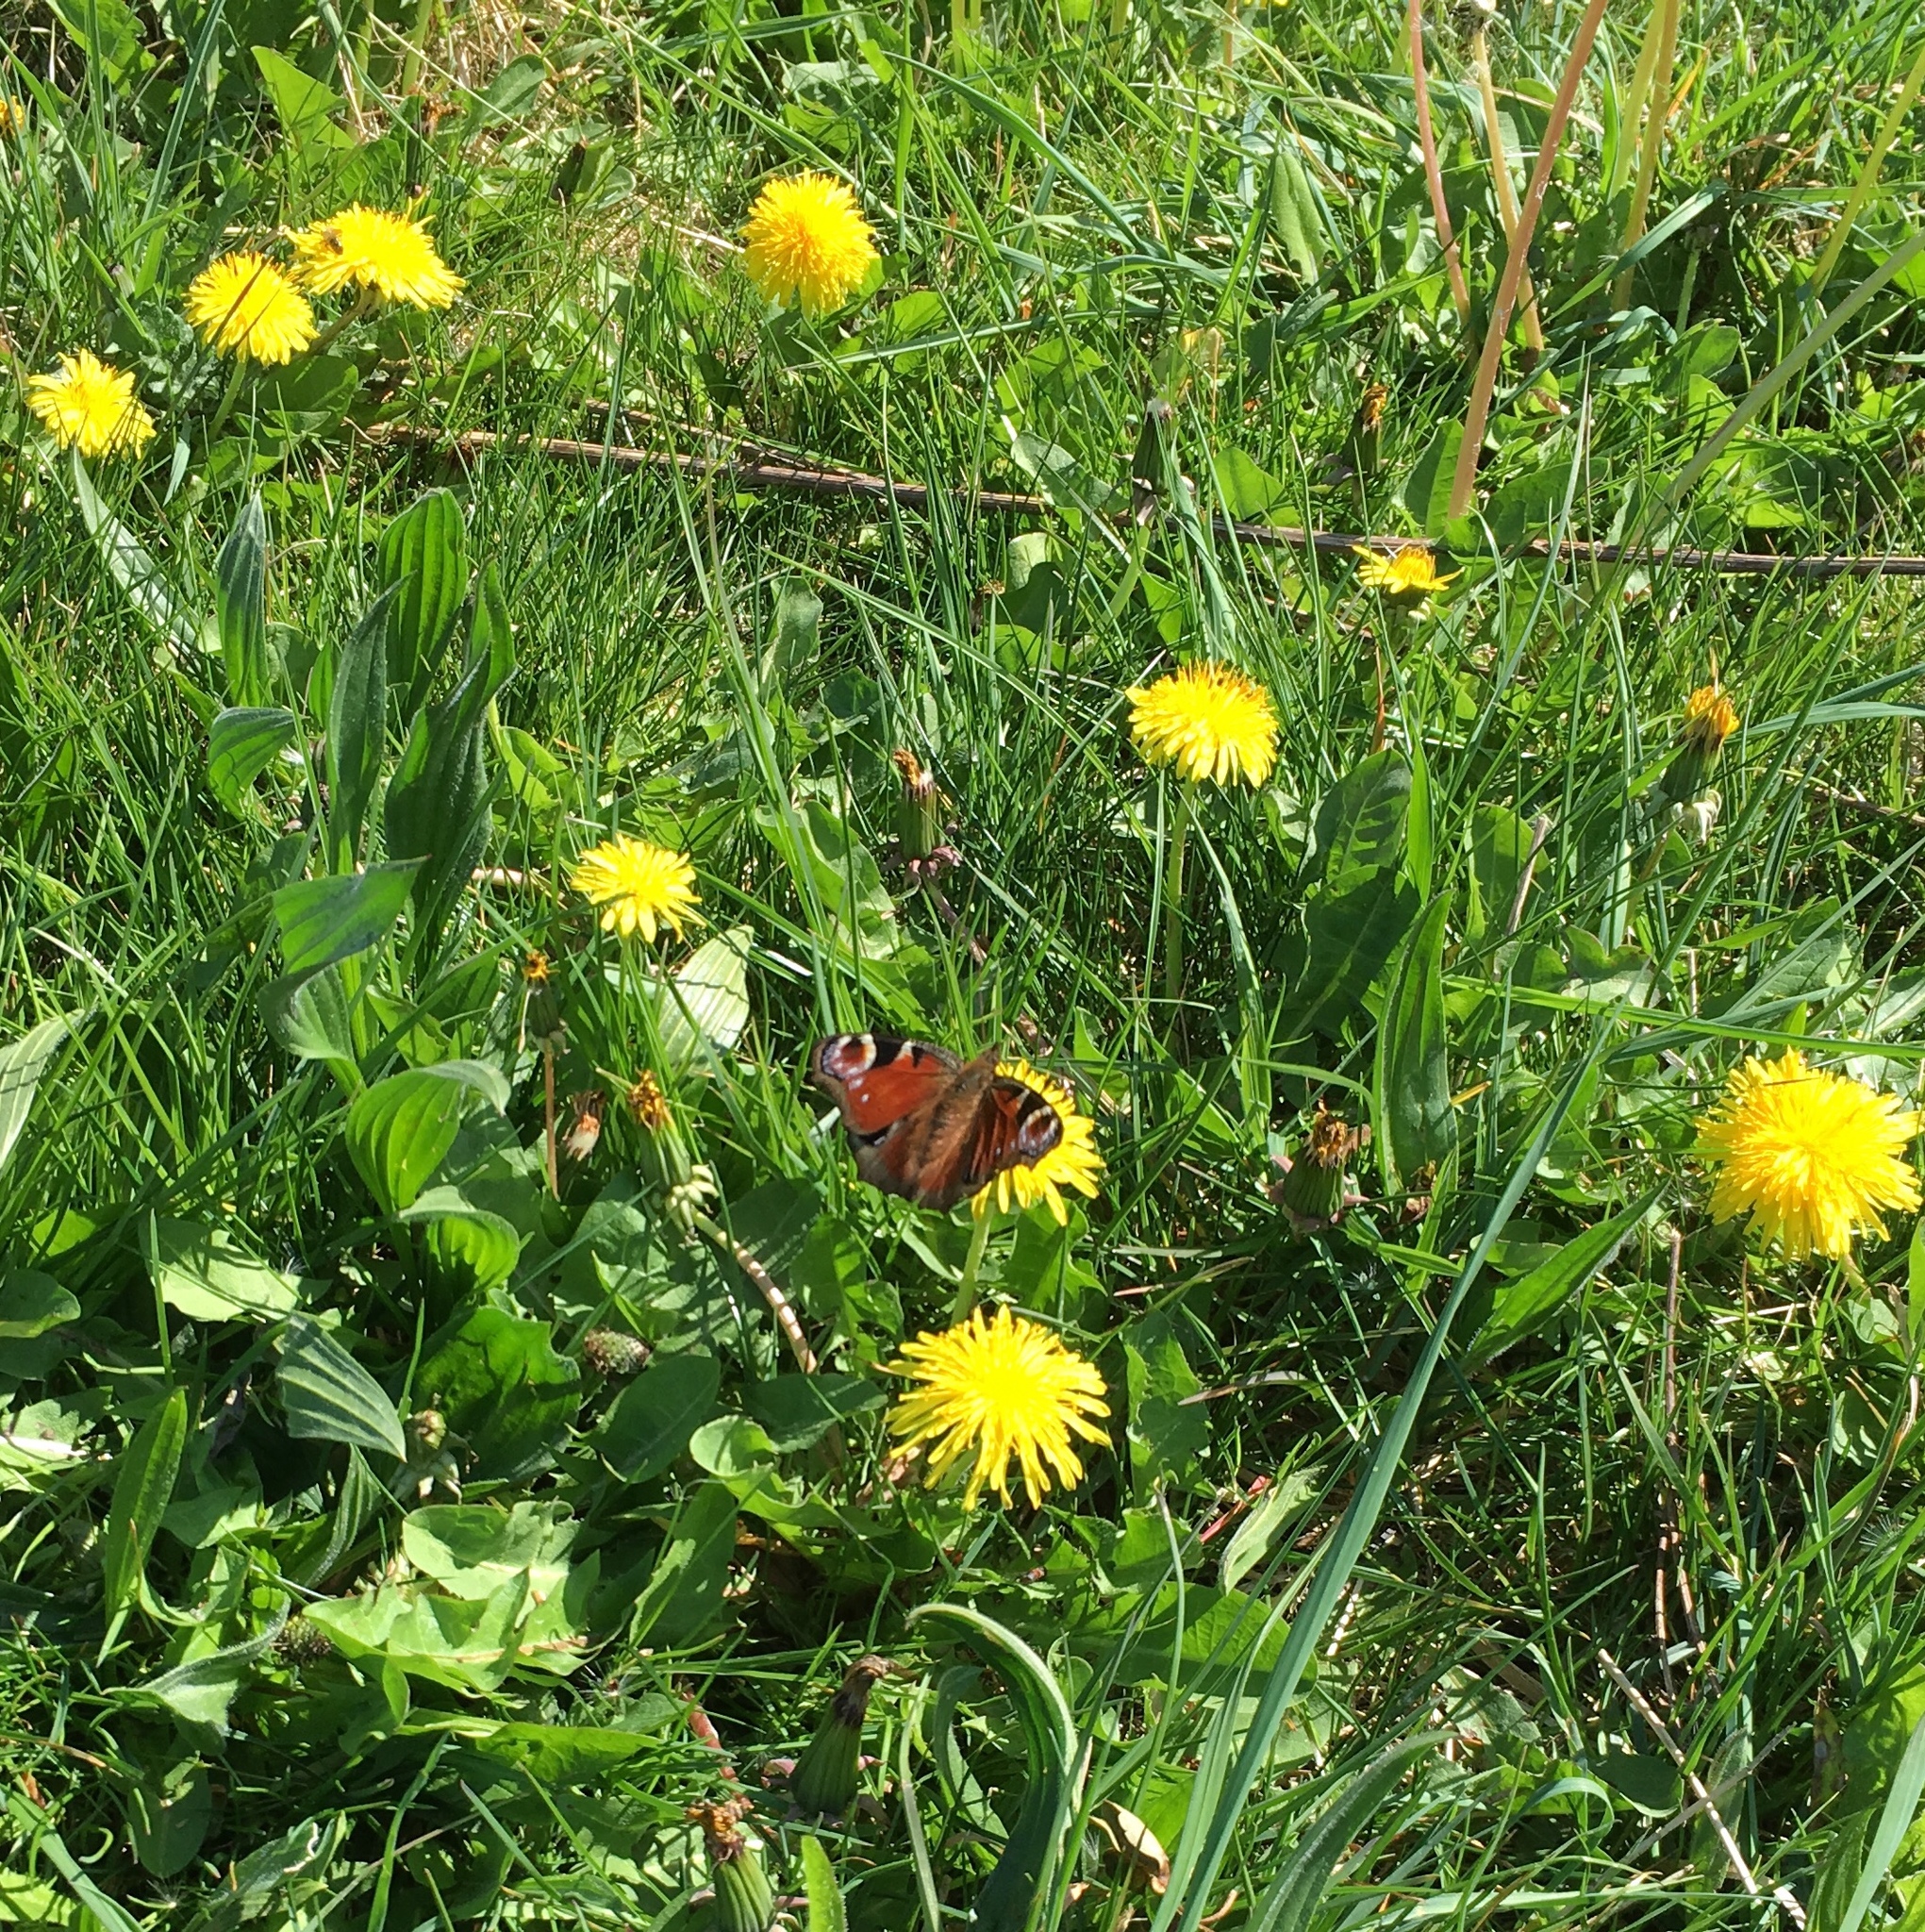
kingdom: Animalia
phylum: Arthropoda
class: Insecta
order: Lepidoptera
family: Nymphalidae
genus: Aglais
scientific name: Aglais io
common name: Peacock
